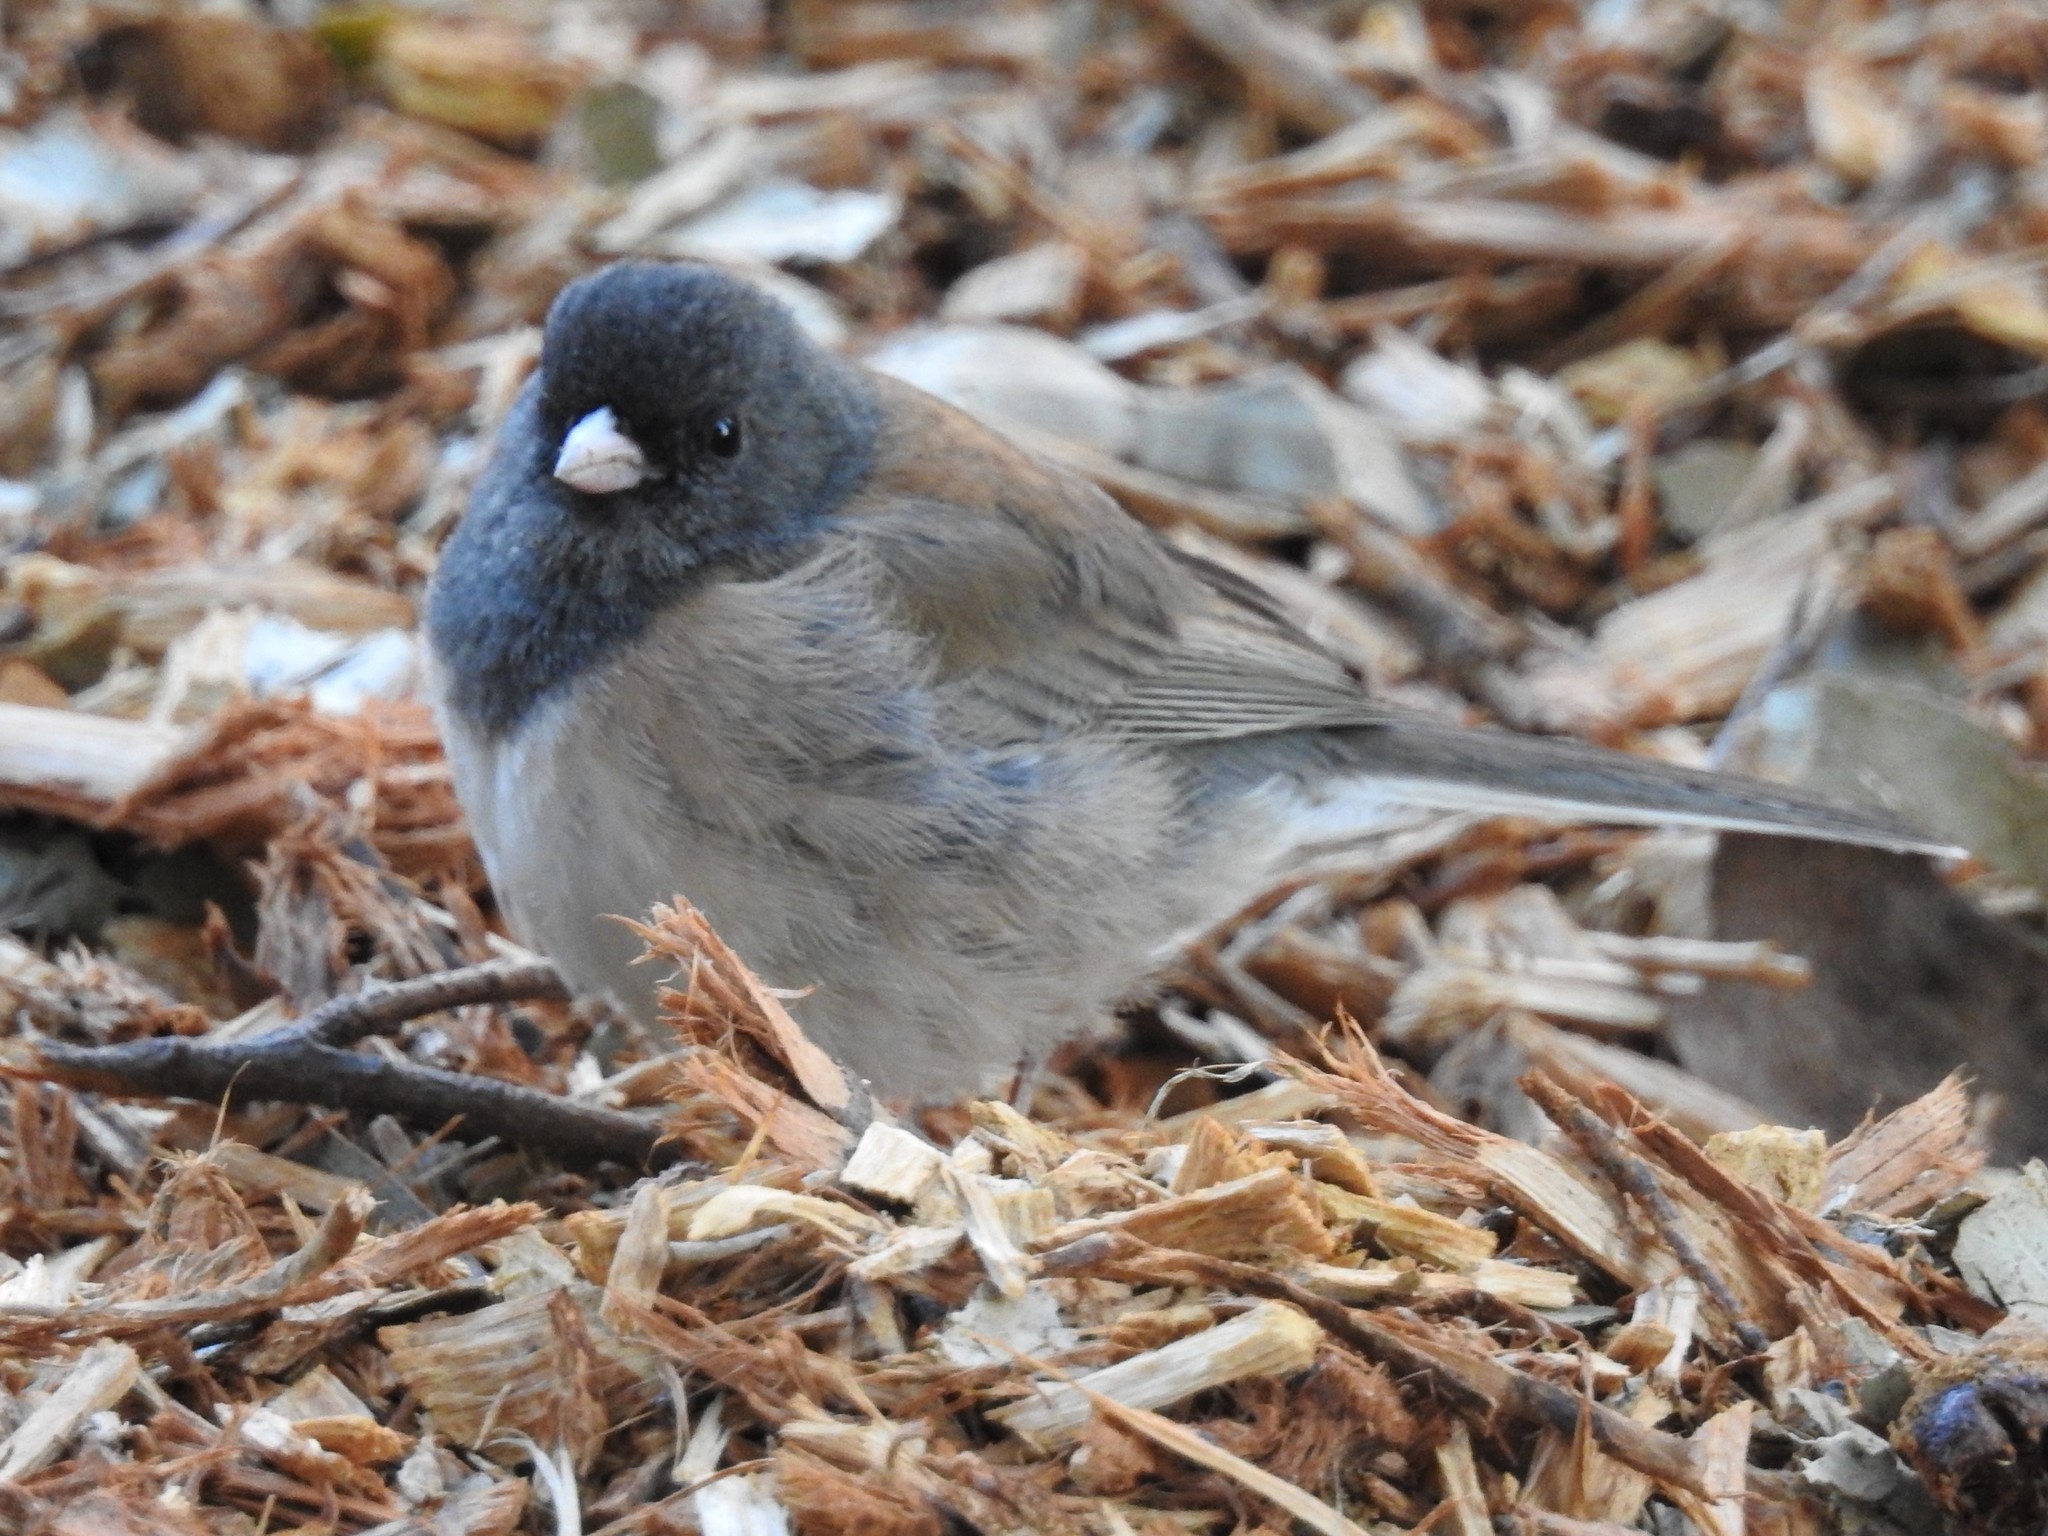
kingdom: Animalia
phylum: Chordata
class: Aves
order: Passeriformes
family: Passerellidae
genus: Junco
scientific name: Junco hyemalis
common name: Dark-eyed junco
